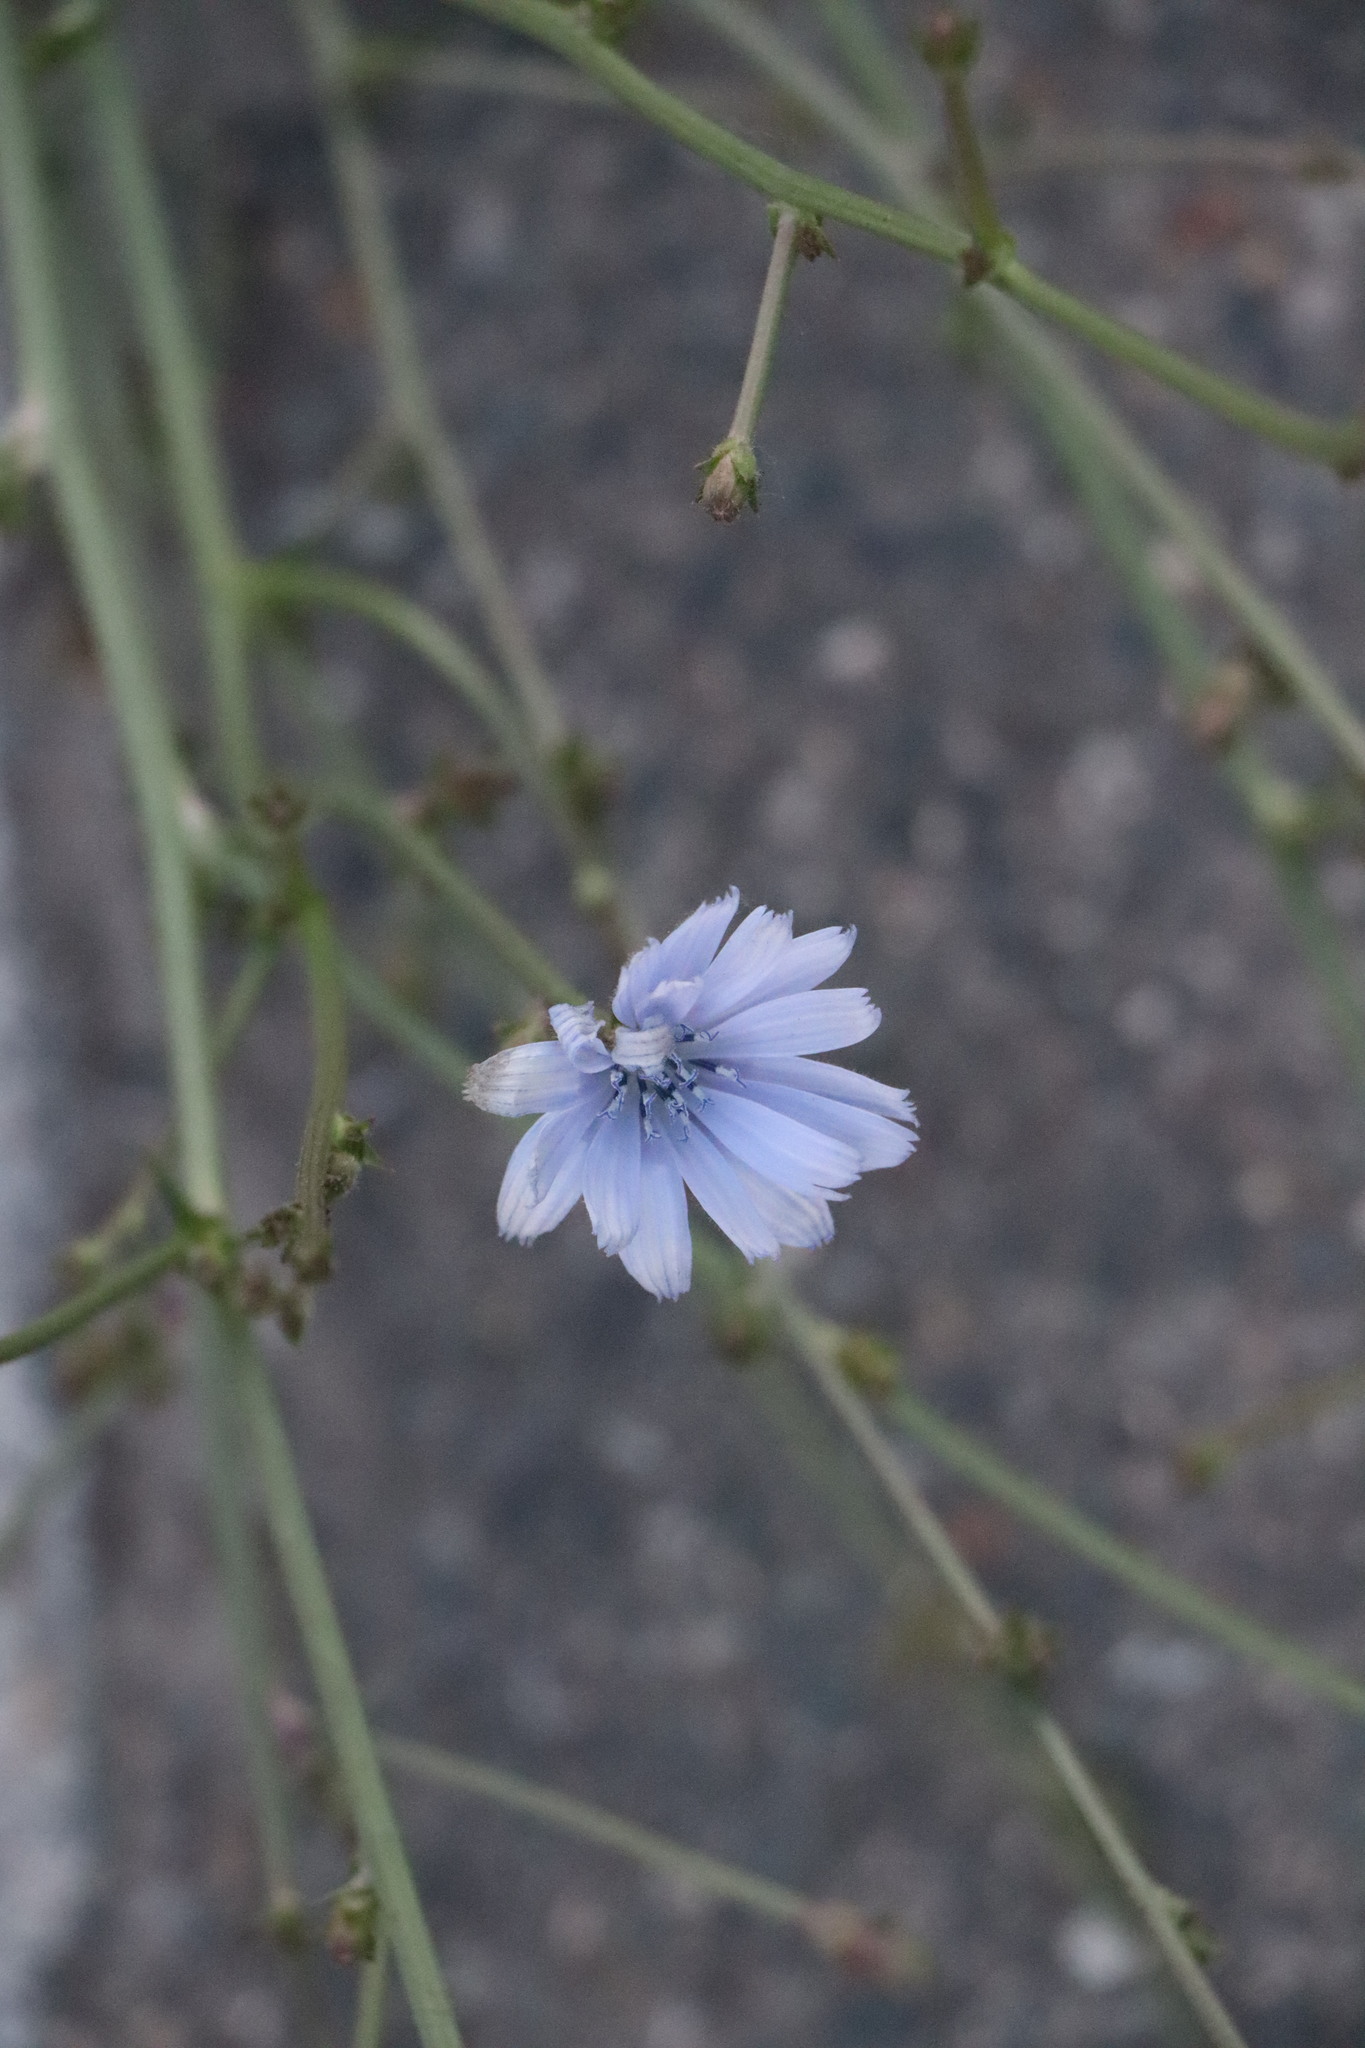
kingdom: Plantae
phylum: Tracheophyta
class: Magnoliopsida
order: Asterales
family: Asteraceae
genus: Cichorium
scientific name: Cichorium intybus
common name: Chicory
